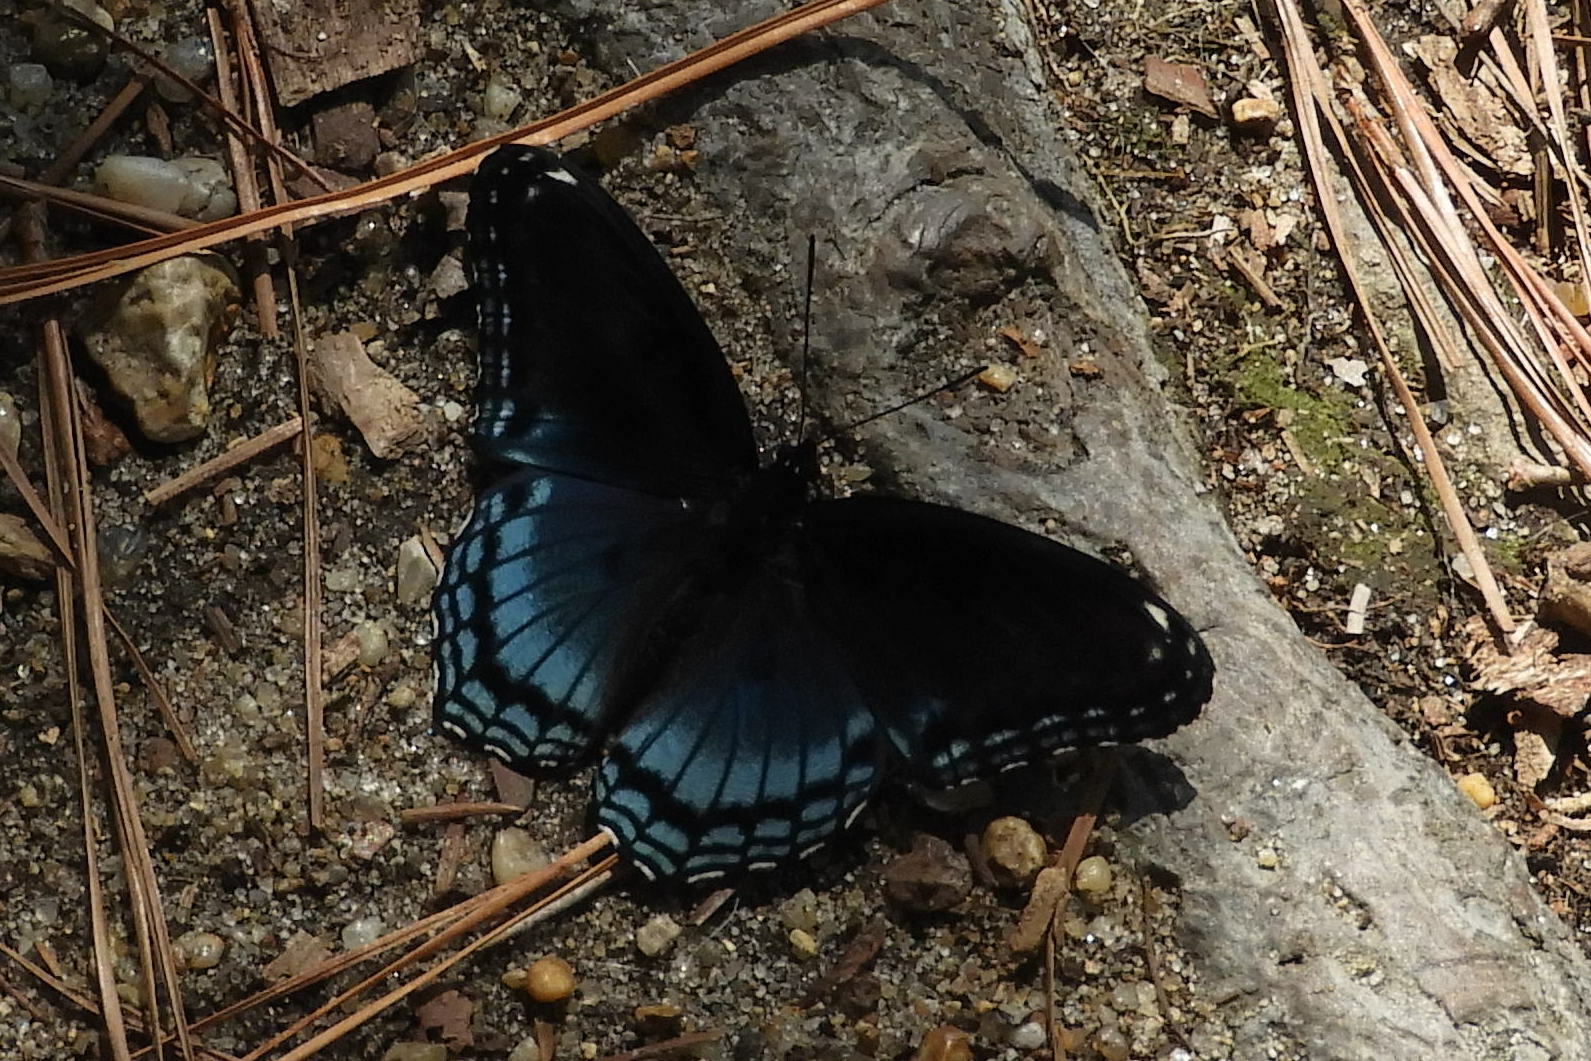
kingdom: Animalia
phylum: Arthropoda
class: Insecta
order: Lepidoptera
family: Nymphalidae
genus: Limenitis
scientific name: Limenitis astyanax
